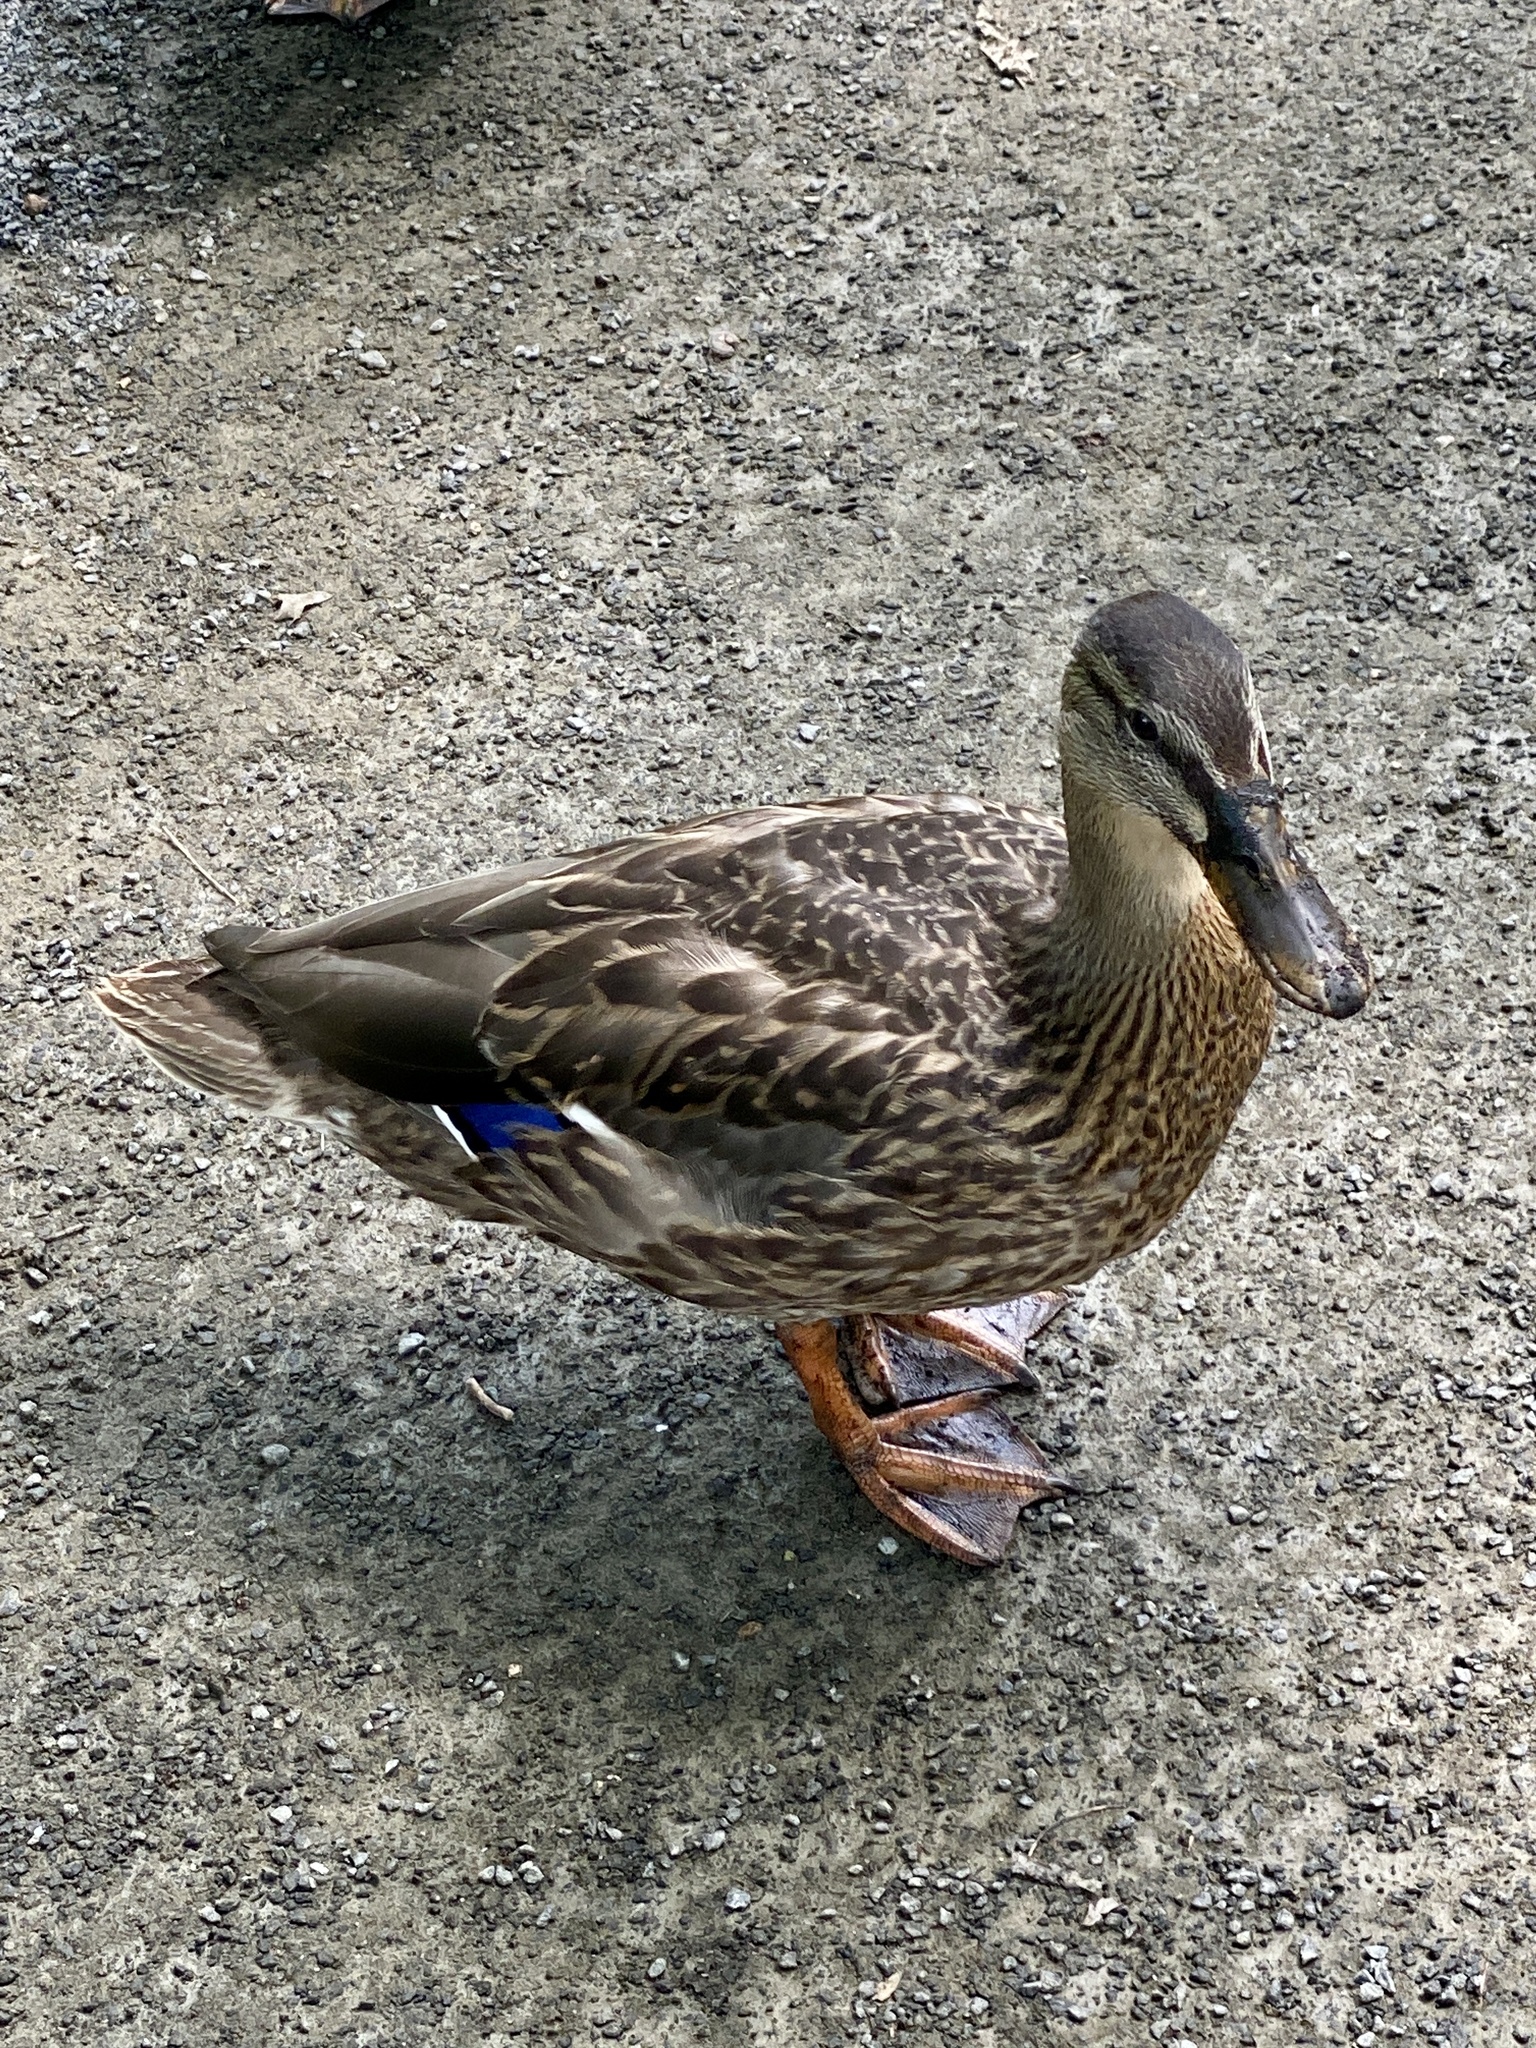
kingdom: Animalia
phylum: Chordata
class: Aves
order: Anseriformes
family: Anatidae
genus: Anas
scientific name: Anas platyrhynchos
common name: Mallard
